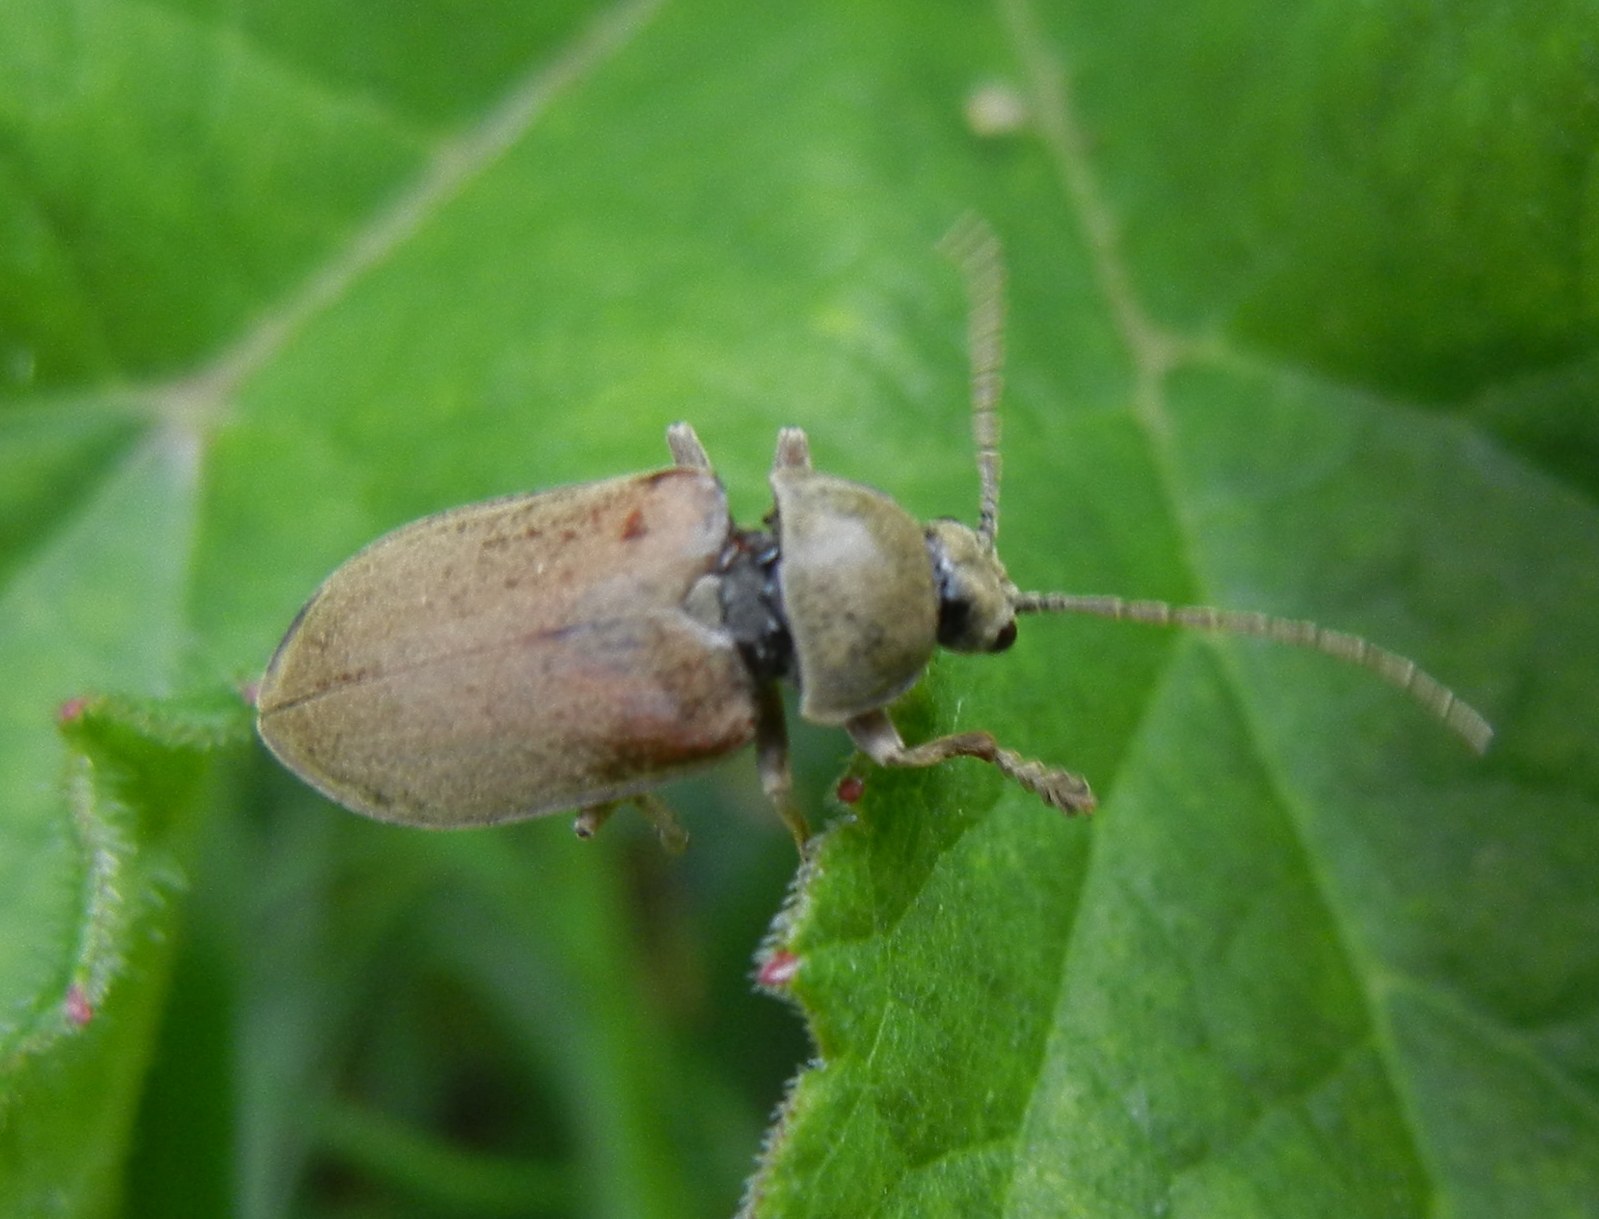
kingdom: Animalia
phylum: Arthropoda
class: Insecta
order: Coleoptera
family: Dascillidae
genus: Dascillus
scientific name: Dascillus cervinus
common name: Orchid beetle
